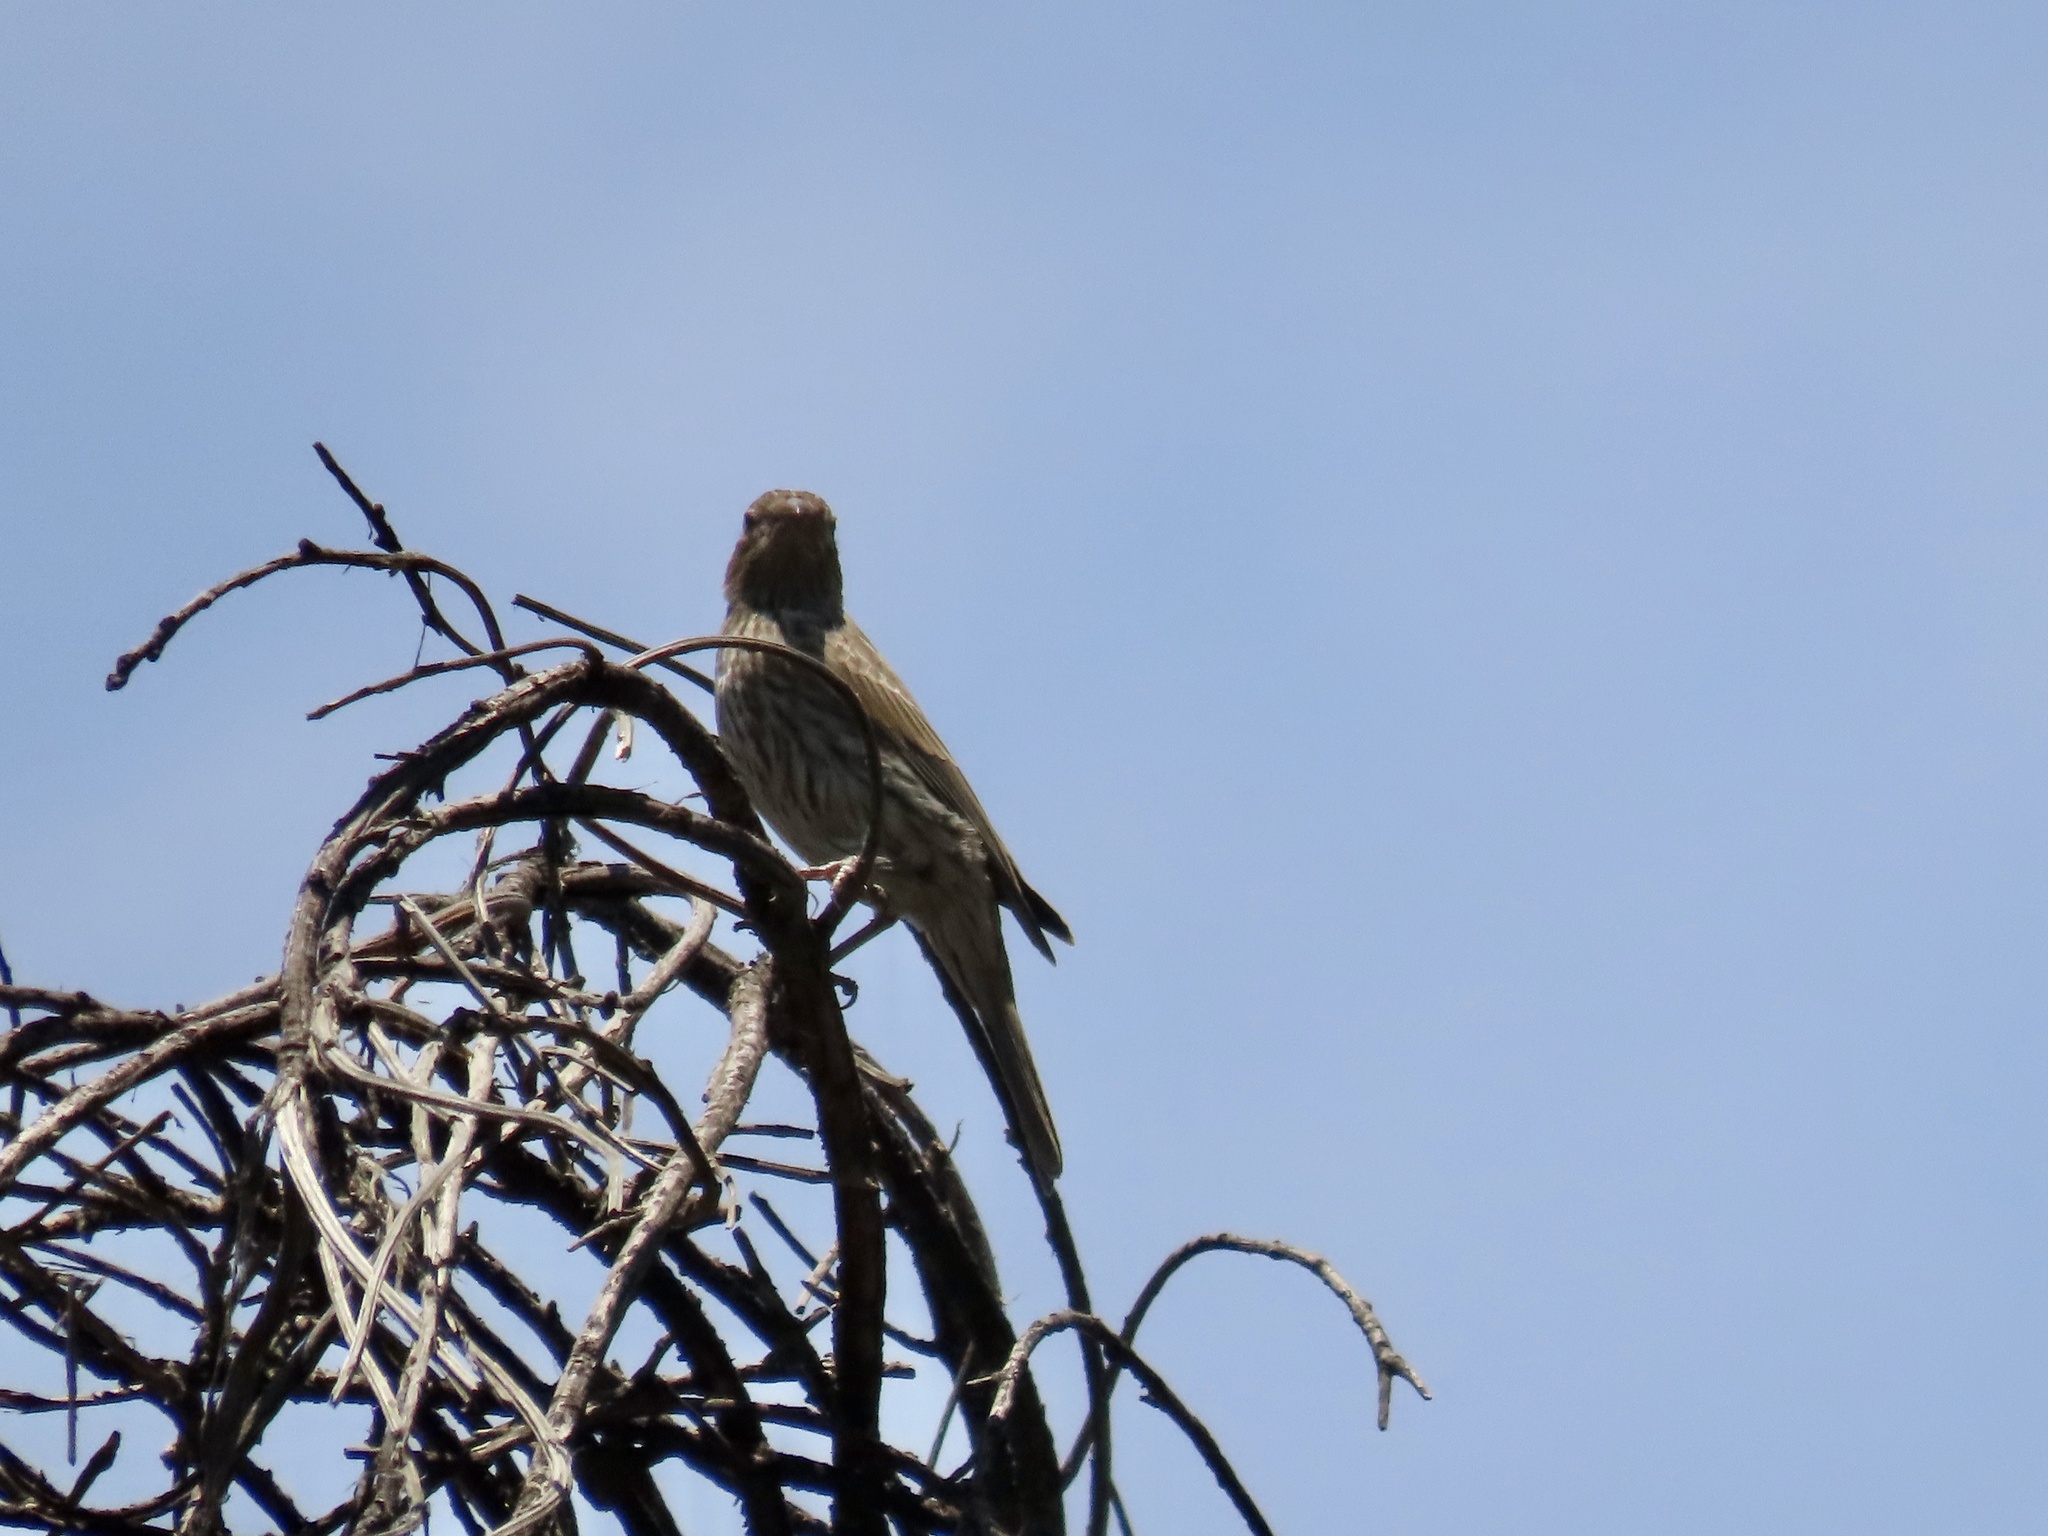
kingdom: Animalia
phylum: Chordata
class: Aves
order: Passeriformes
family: Fringillidae
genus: Haemorhous
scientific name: Haemorhous mexicanus
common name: House finch
